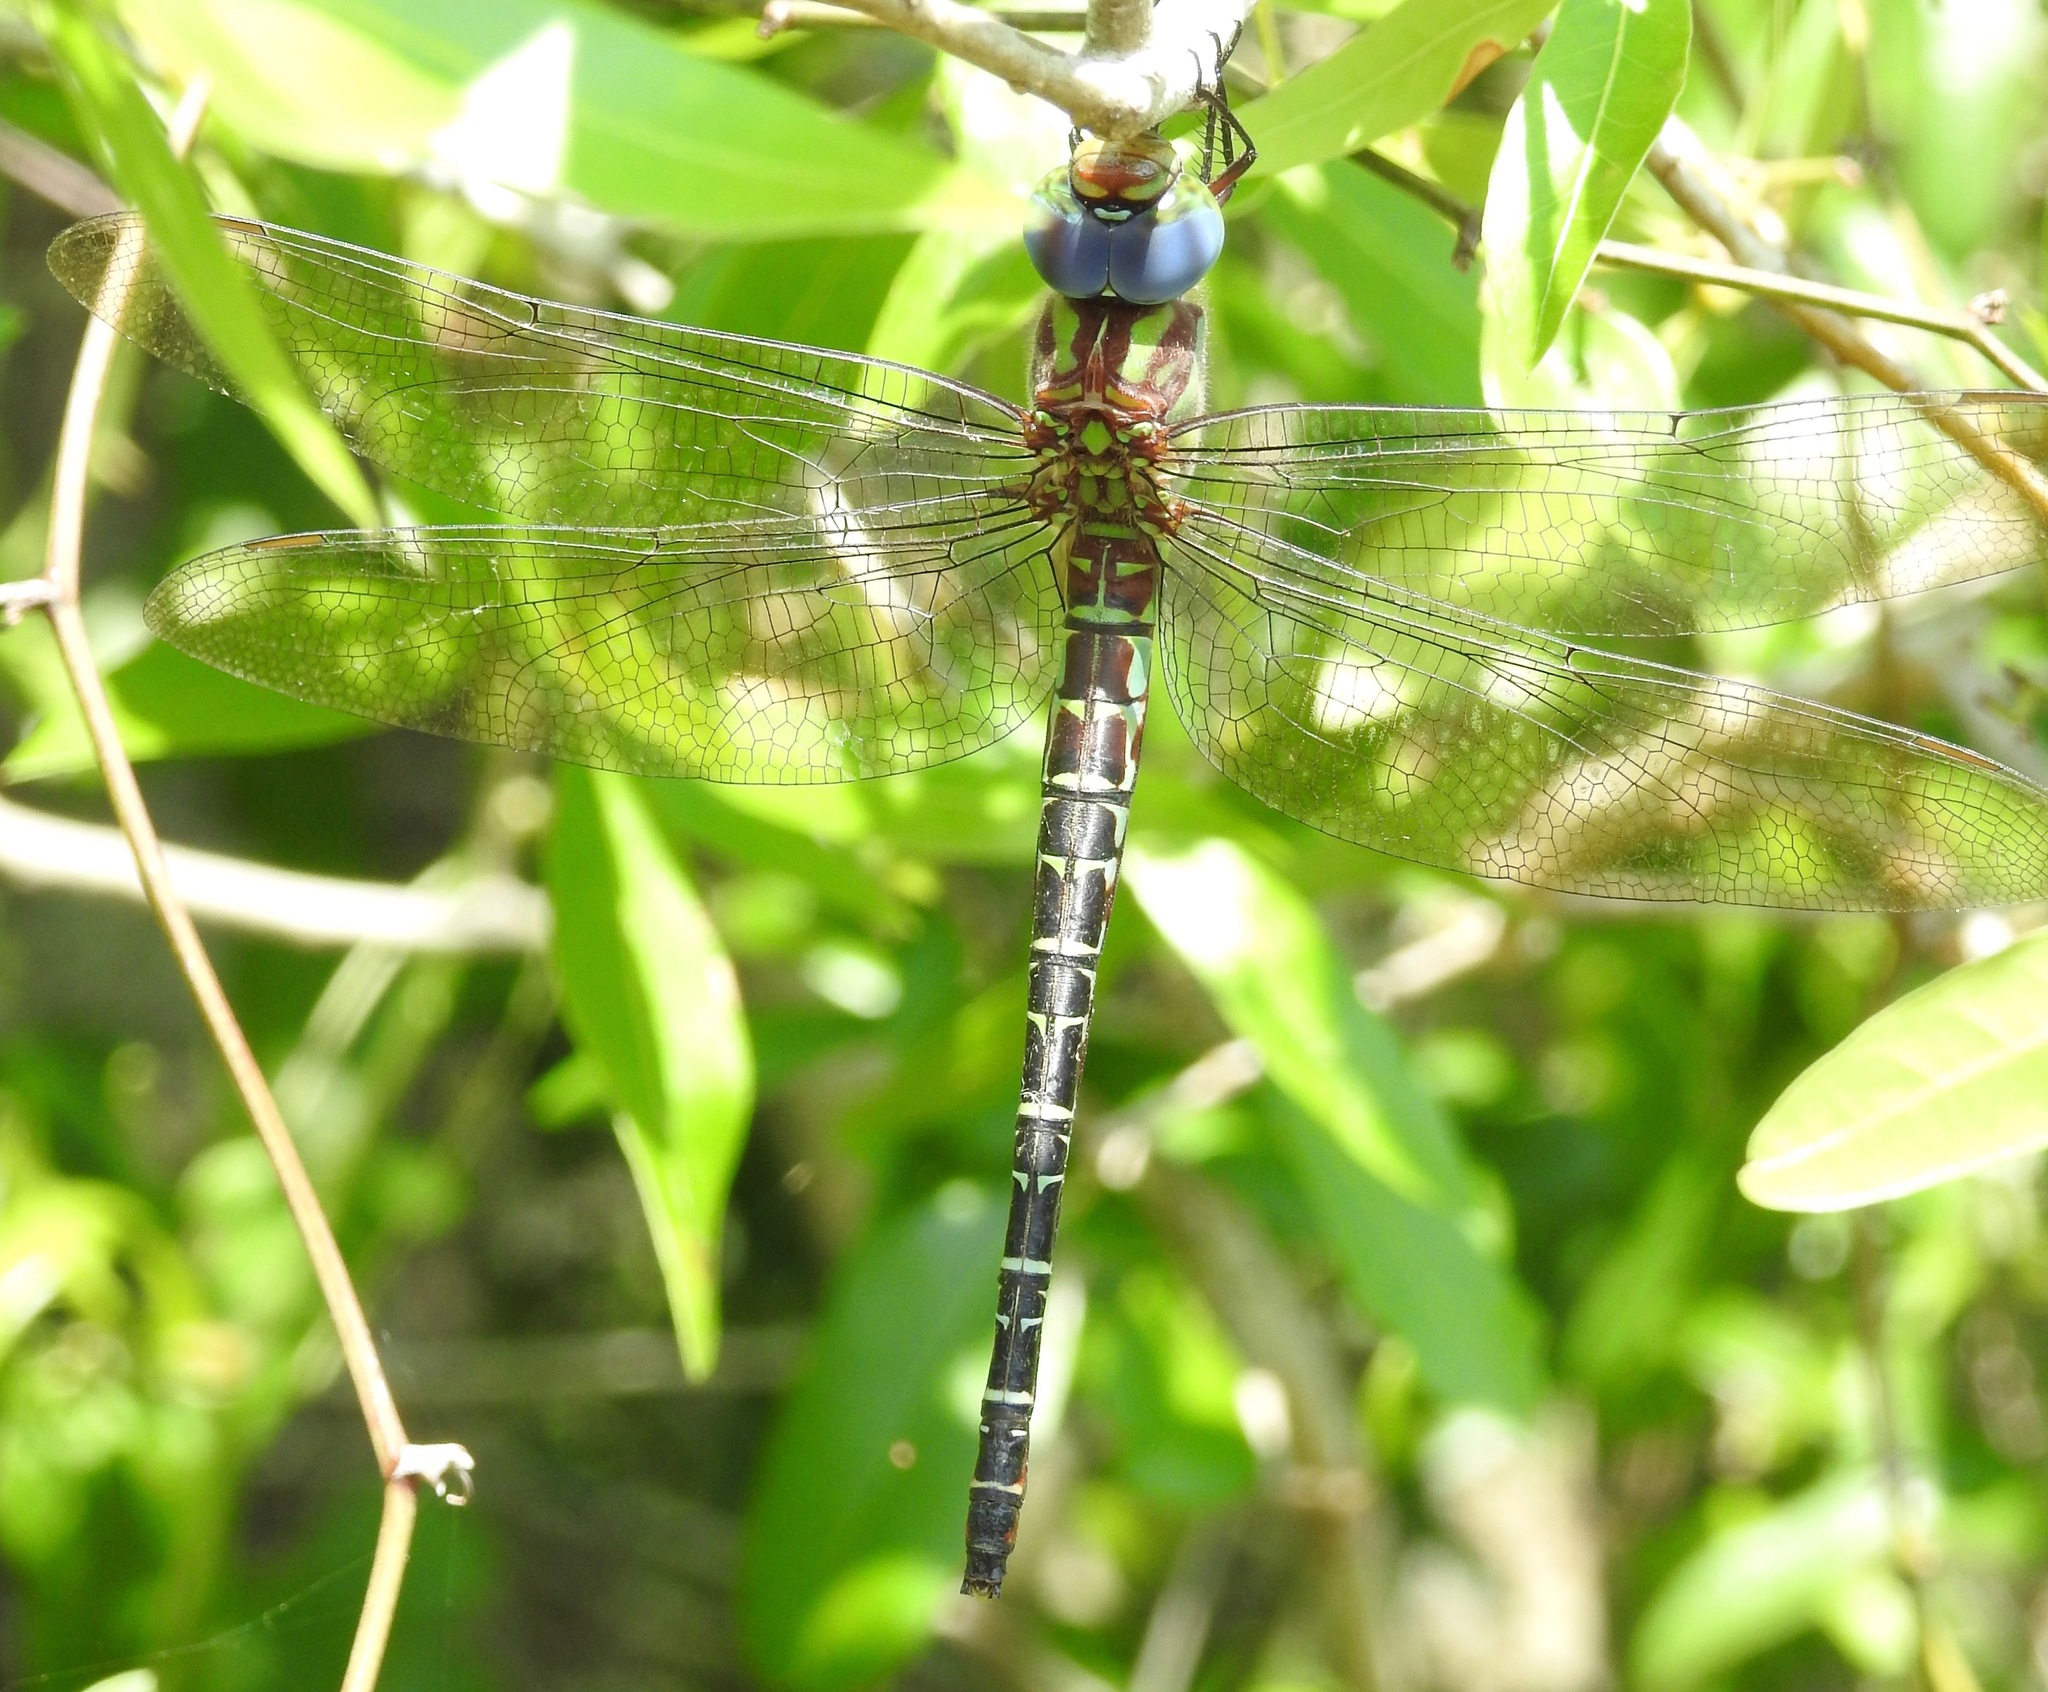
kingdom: Animalia
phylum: Arthropoda
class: Insecta
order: Odonata
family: Aeshnidae
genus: Coryphaeschna
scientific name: Coryphaeschna ingens
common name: Regal darner
